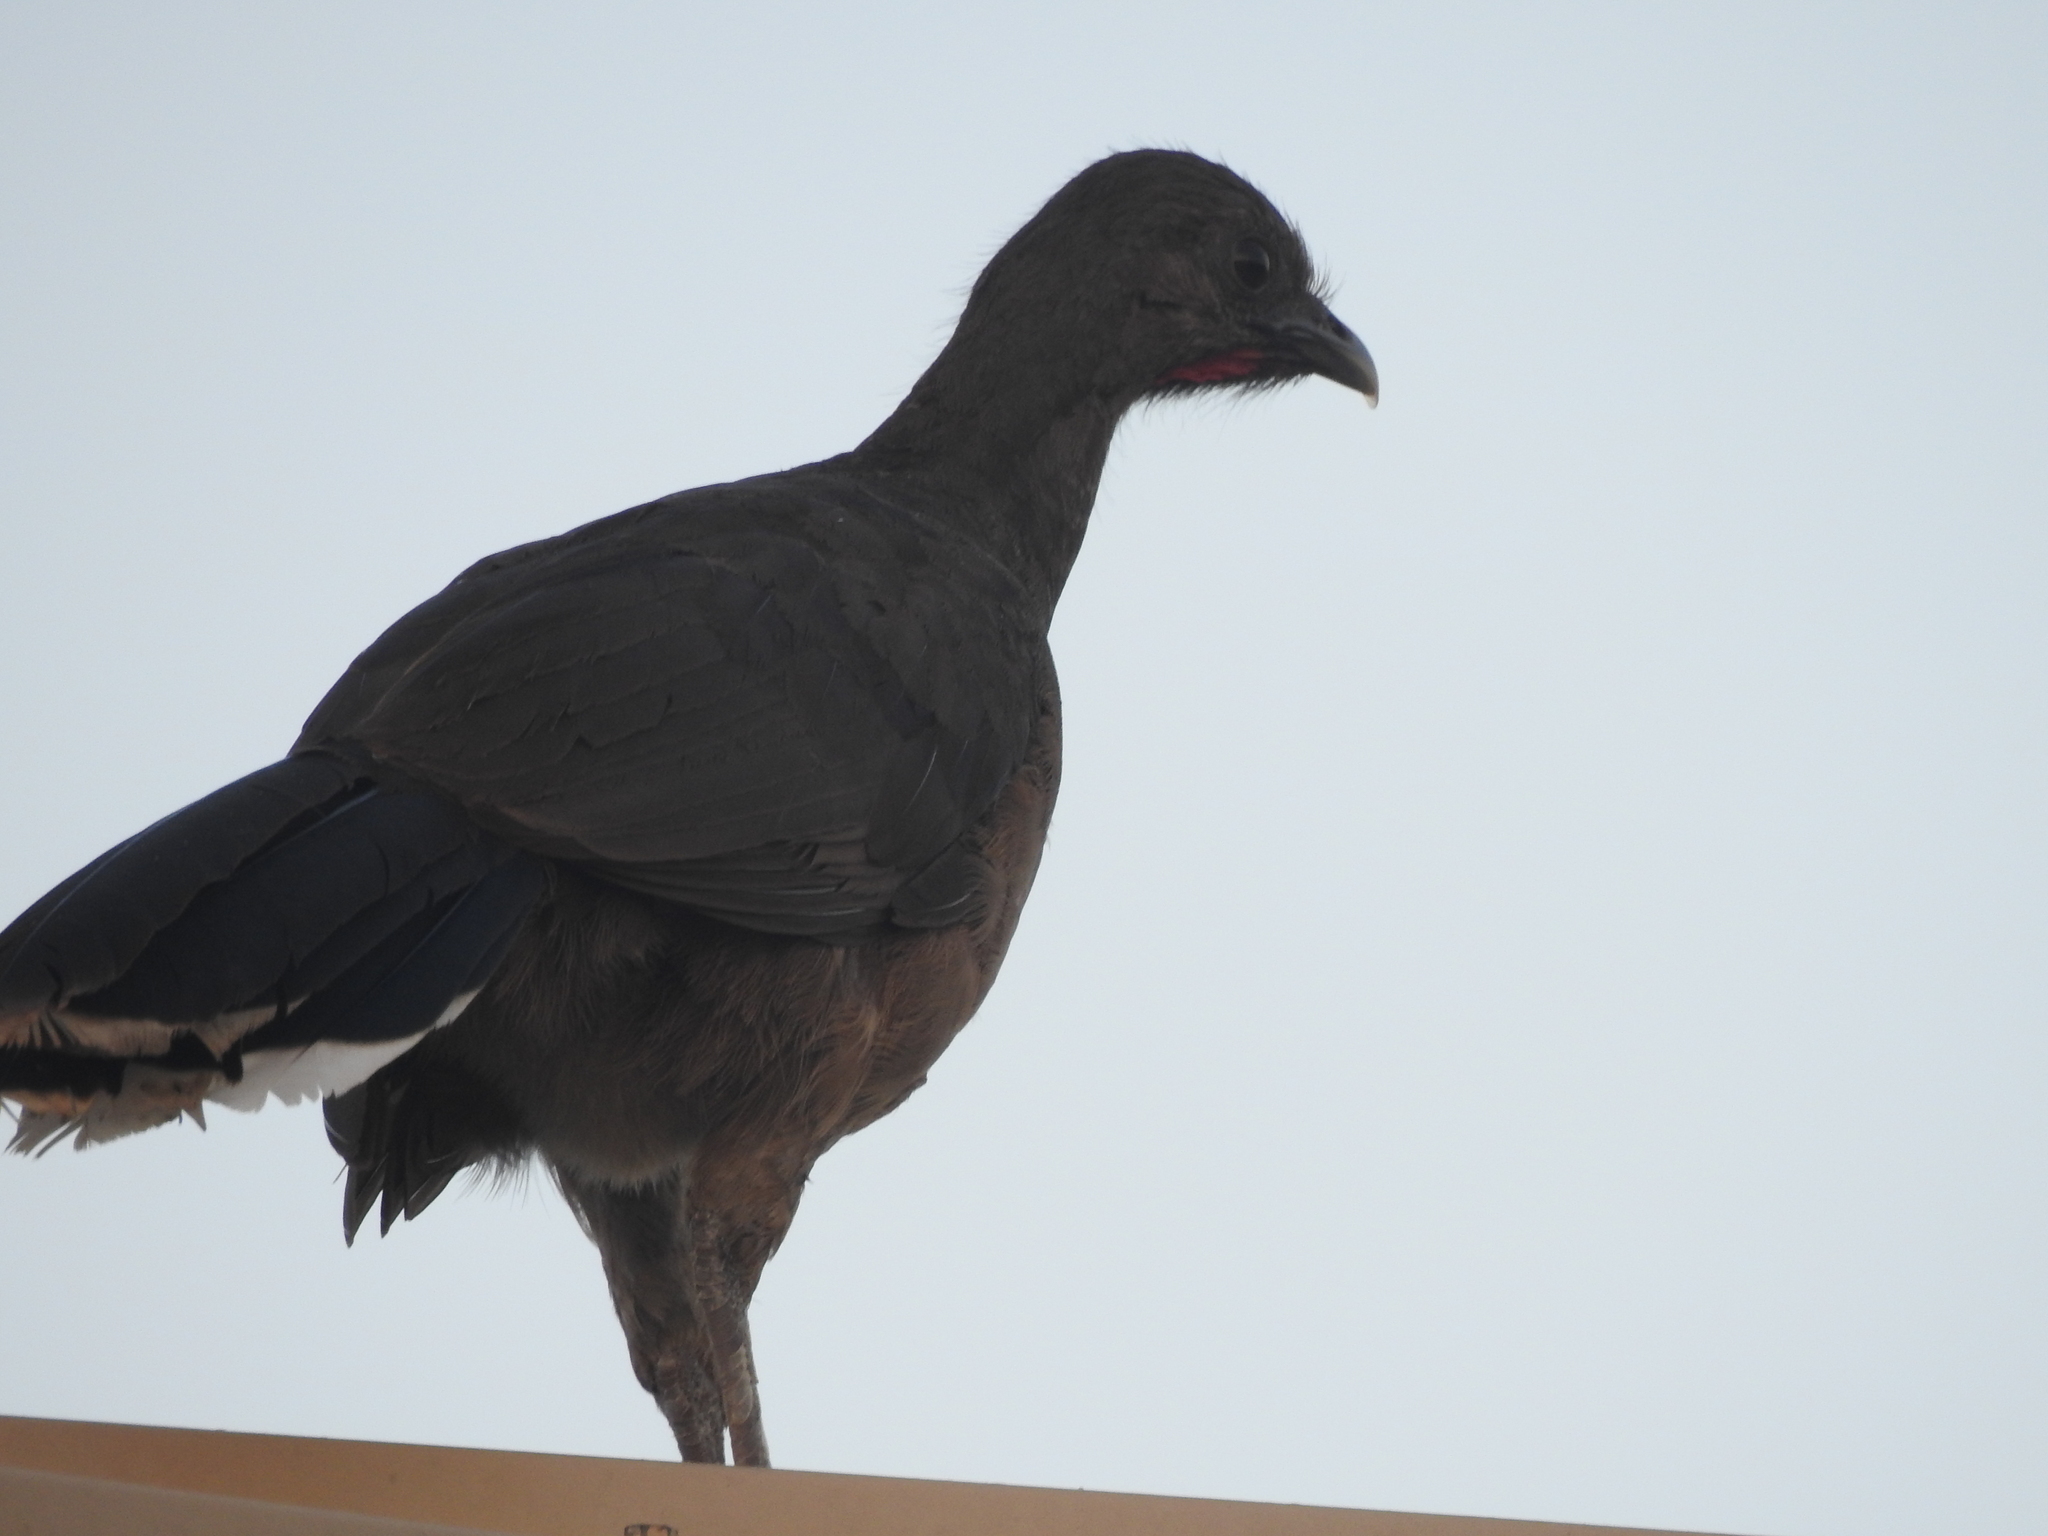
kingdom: Animalia
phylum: Chordata
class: Aves
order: Galliformes
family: Cracidae
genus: Ortalis
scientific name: Ortalis vetula
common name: Plain chachalaca
